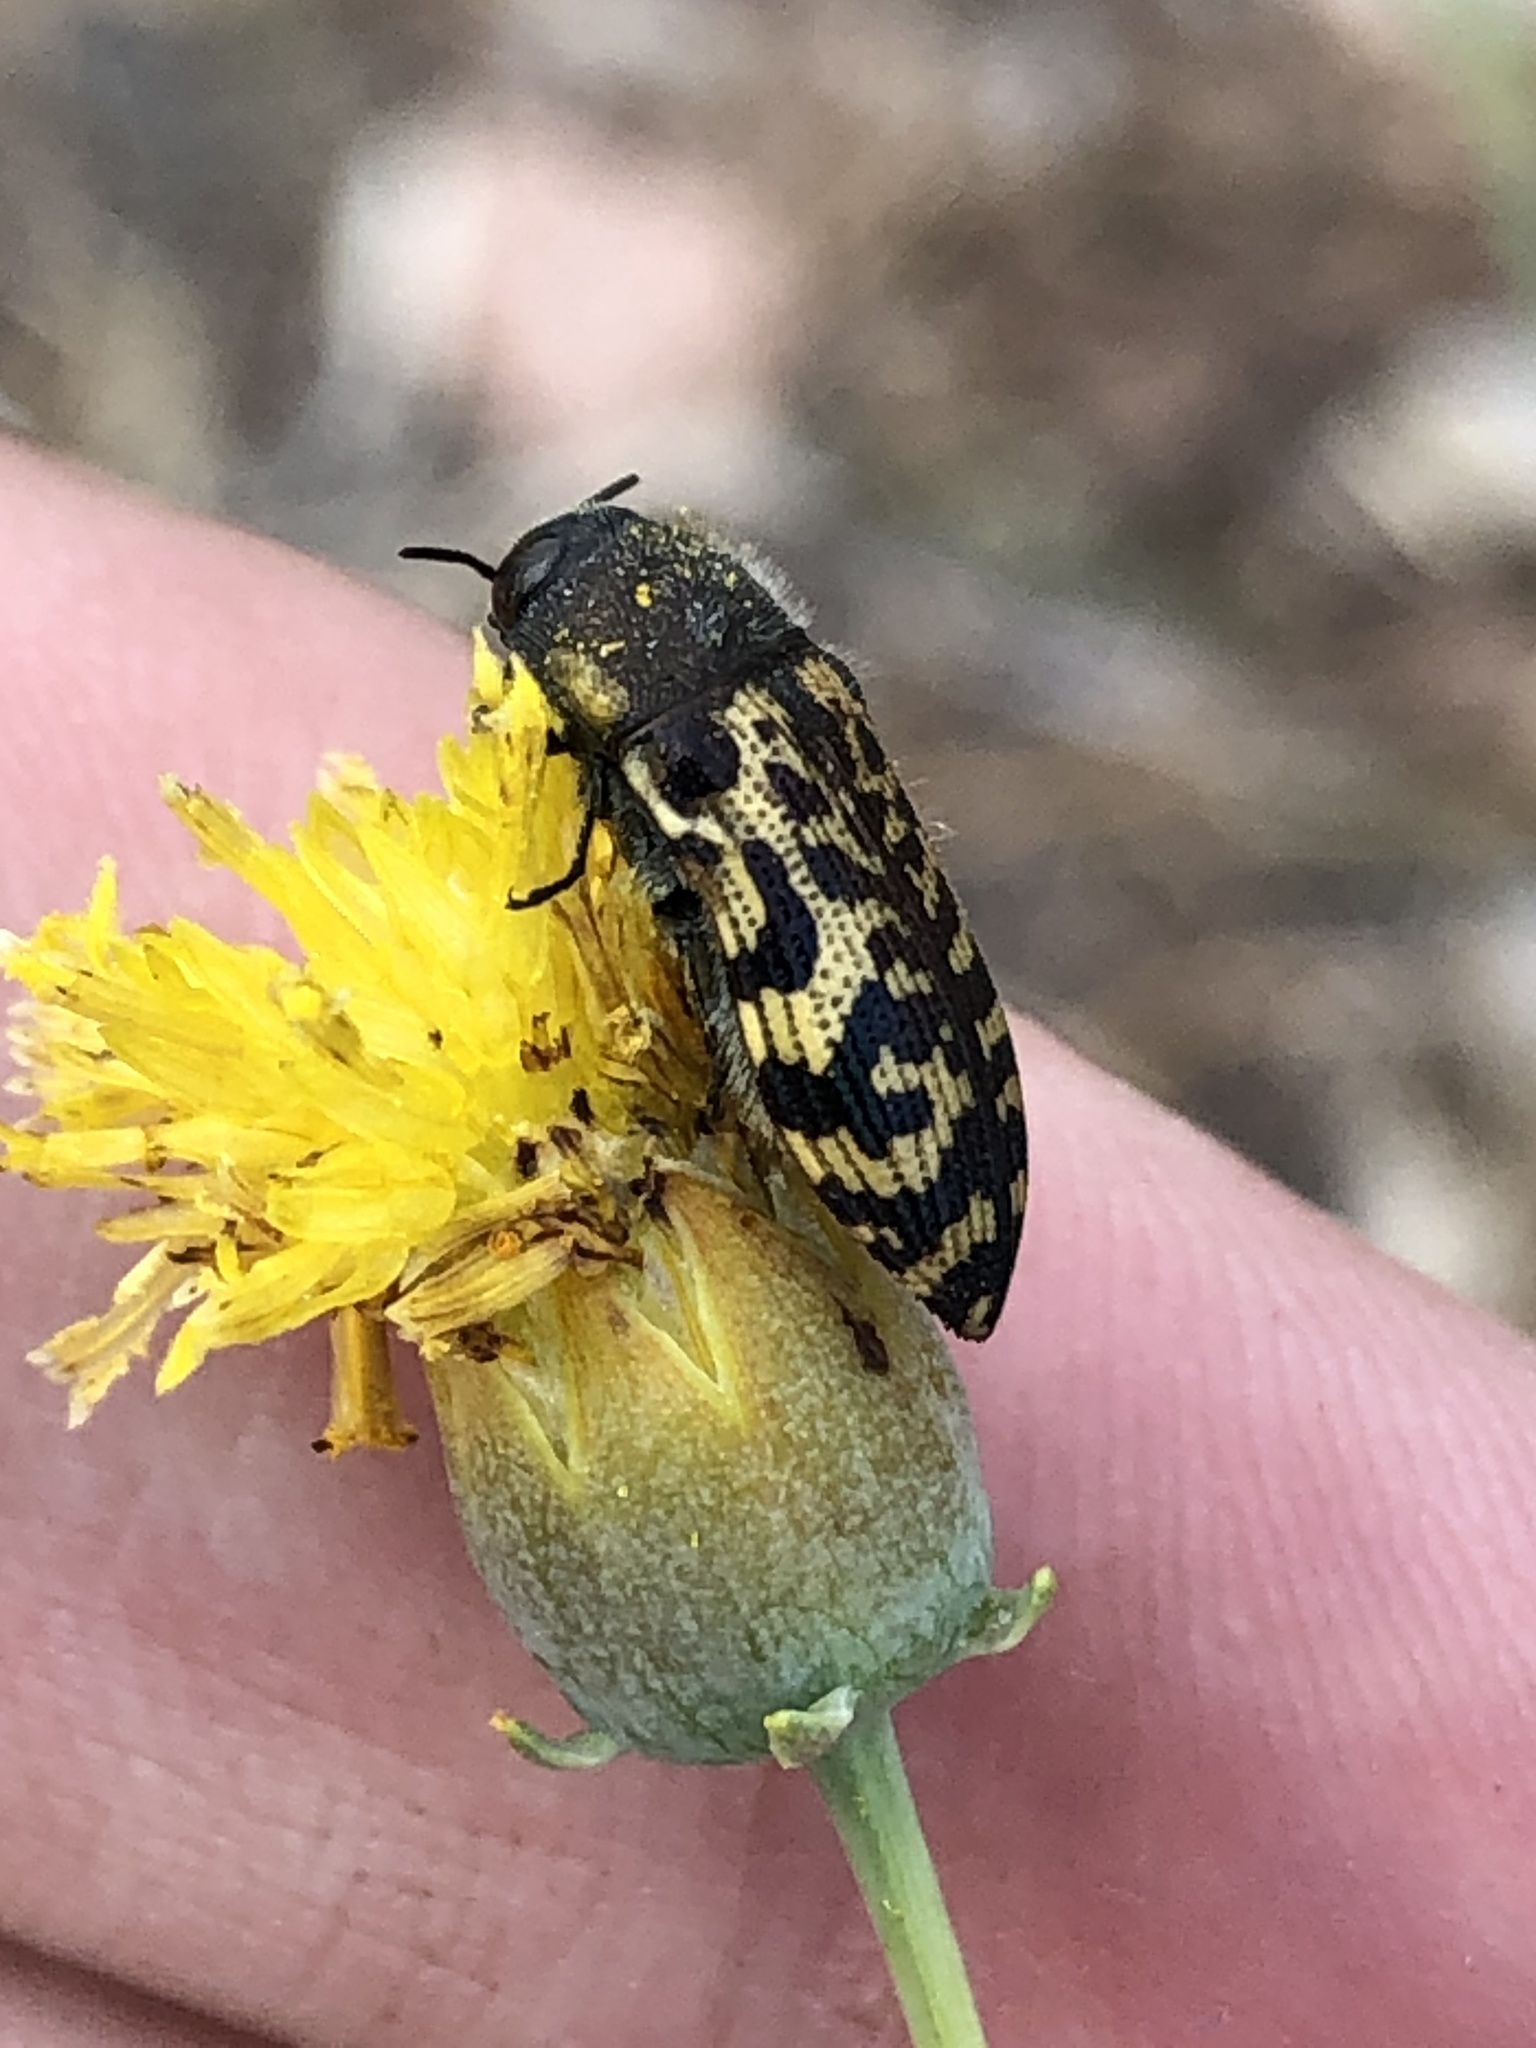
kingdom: Animalia
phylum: Arthropoda
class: Insecta
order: Coleoptera
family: Buprestidae
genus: Acmaeodera
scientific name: Acmaeodera mixta
